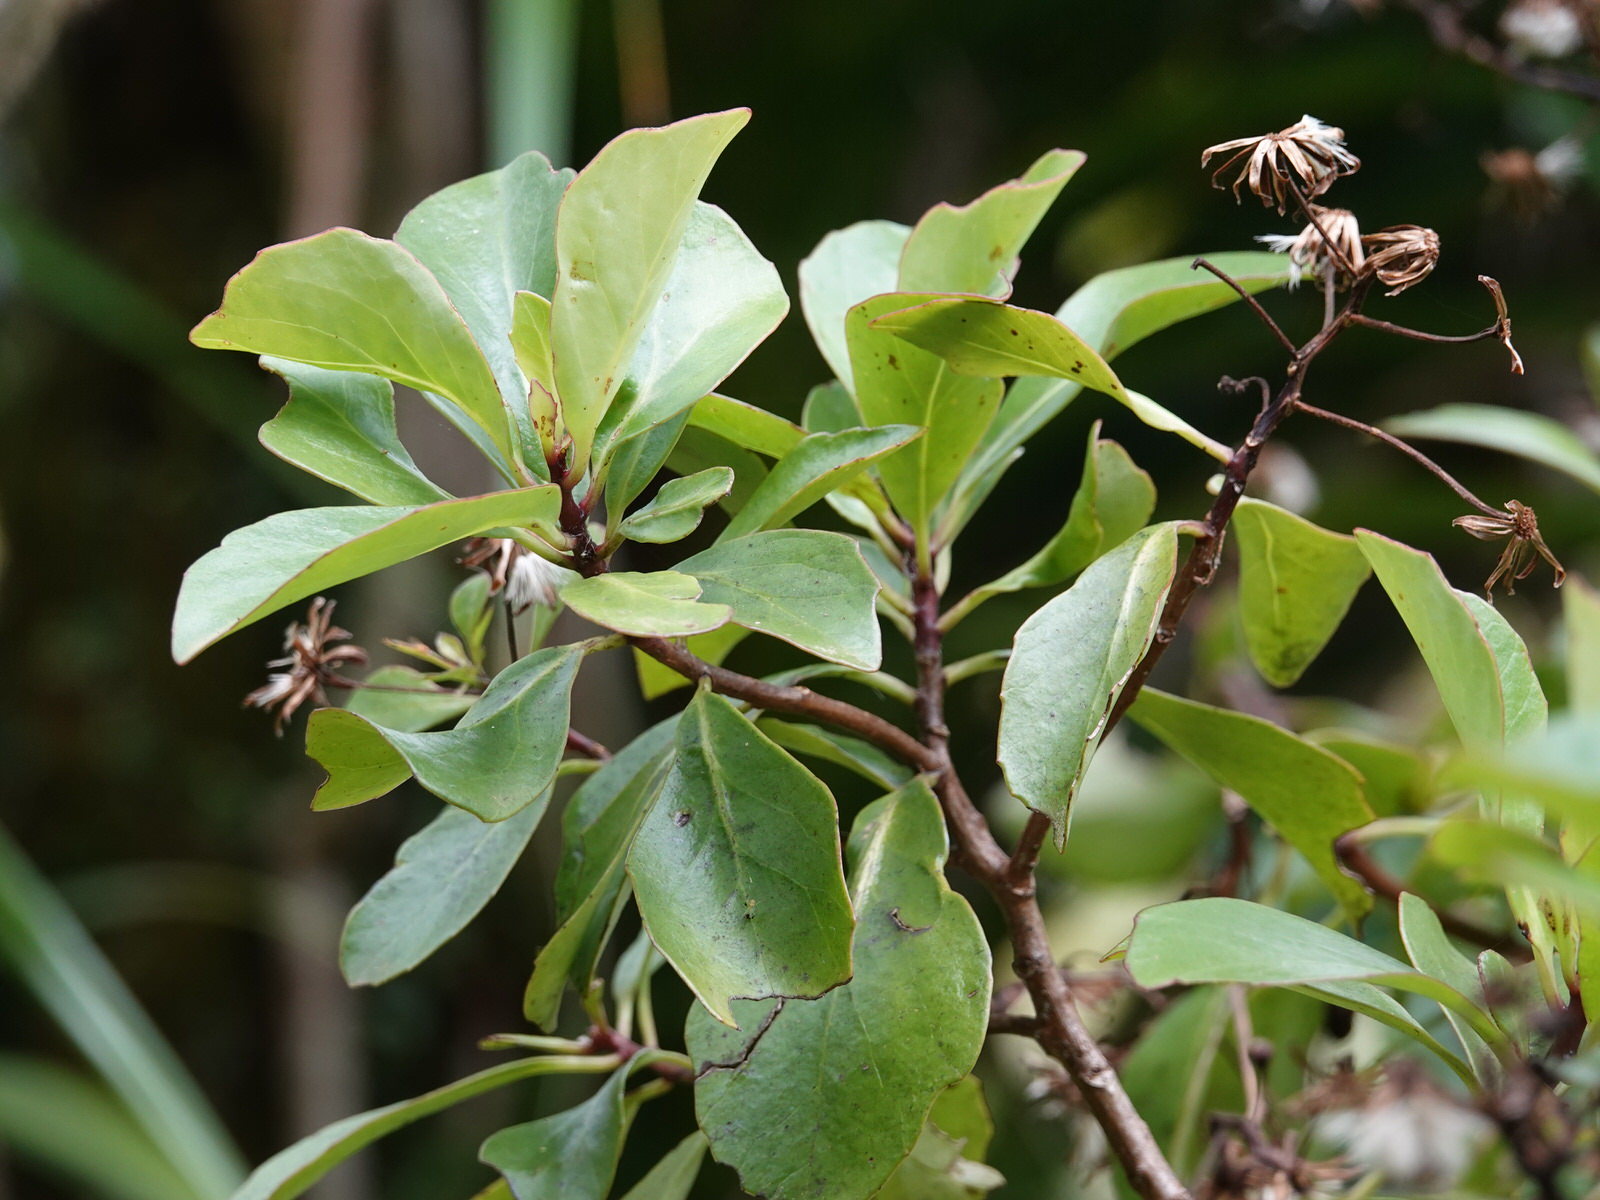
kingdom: Plantae
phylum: Tracheophyta
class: Magnoliopsida
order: Asterales
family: Asteraceae
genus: Brachyglottis
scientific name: Brachyglottis kirkii
